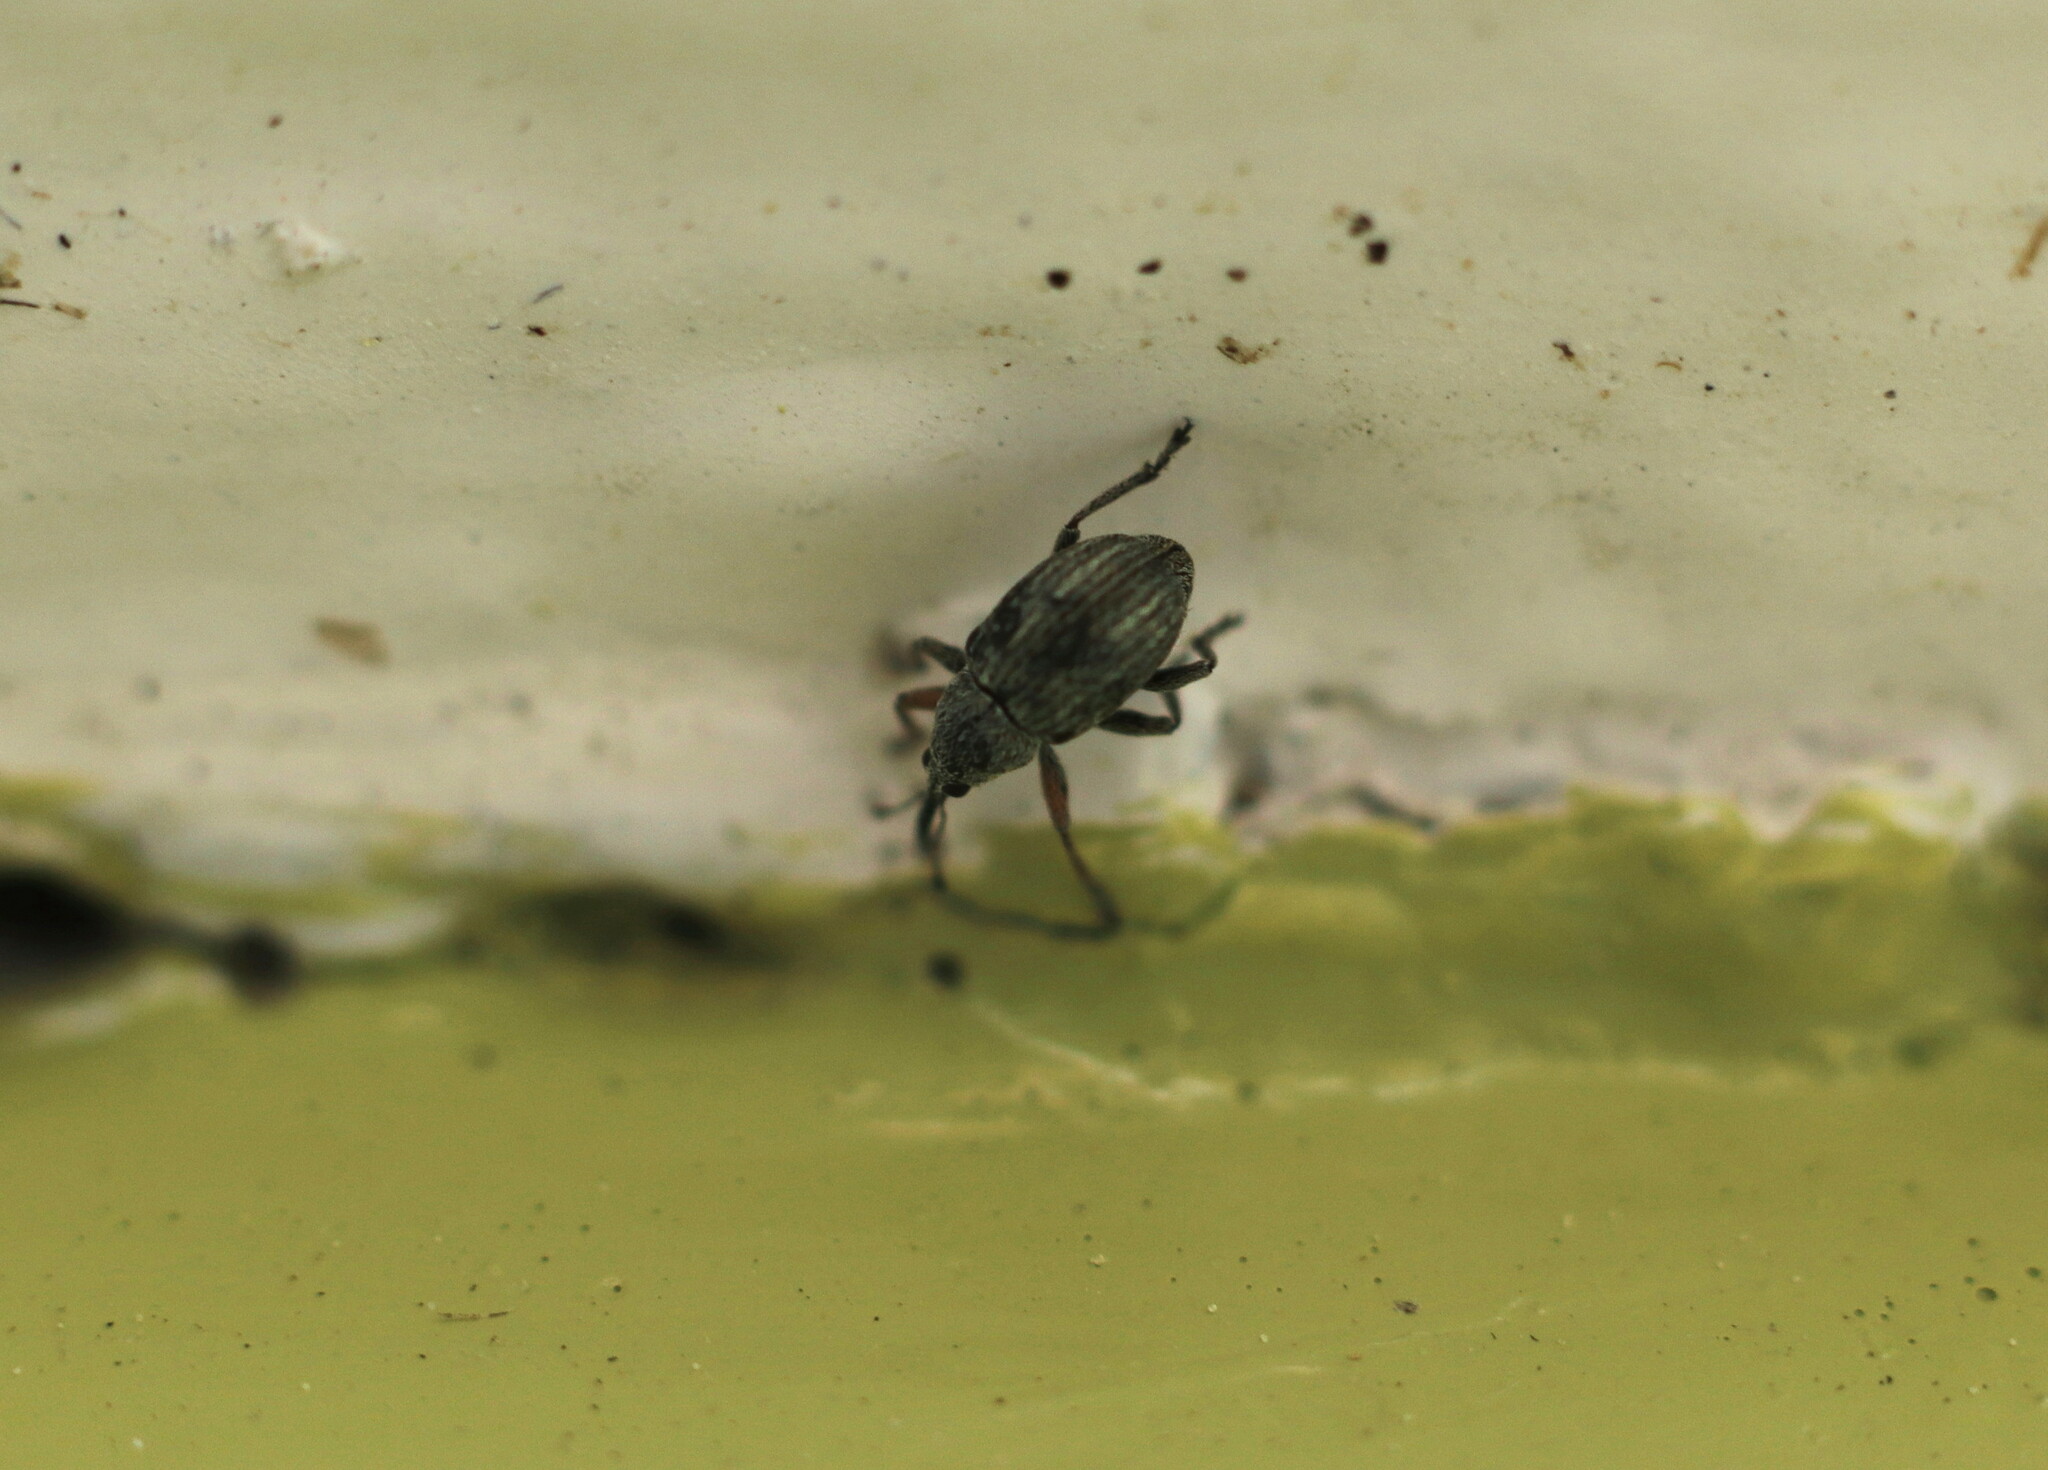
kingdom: Animalia
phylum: Arthropoda
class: Insecta
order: Coleoptera
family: Brentidae
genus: Exapion
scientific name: Exapion ulicis
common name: Gorse seed weevil
